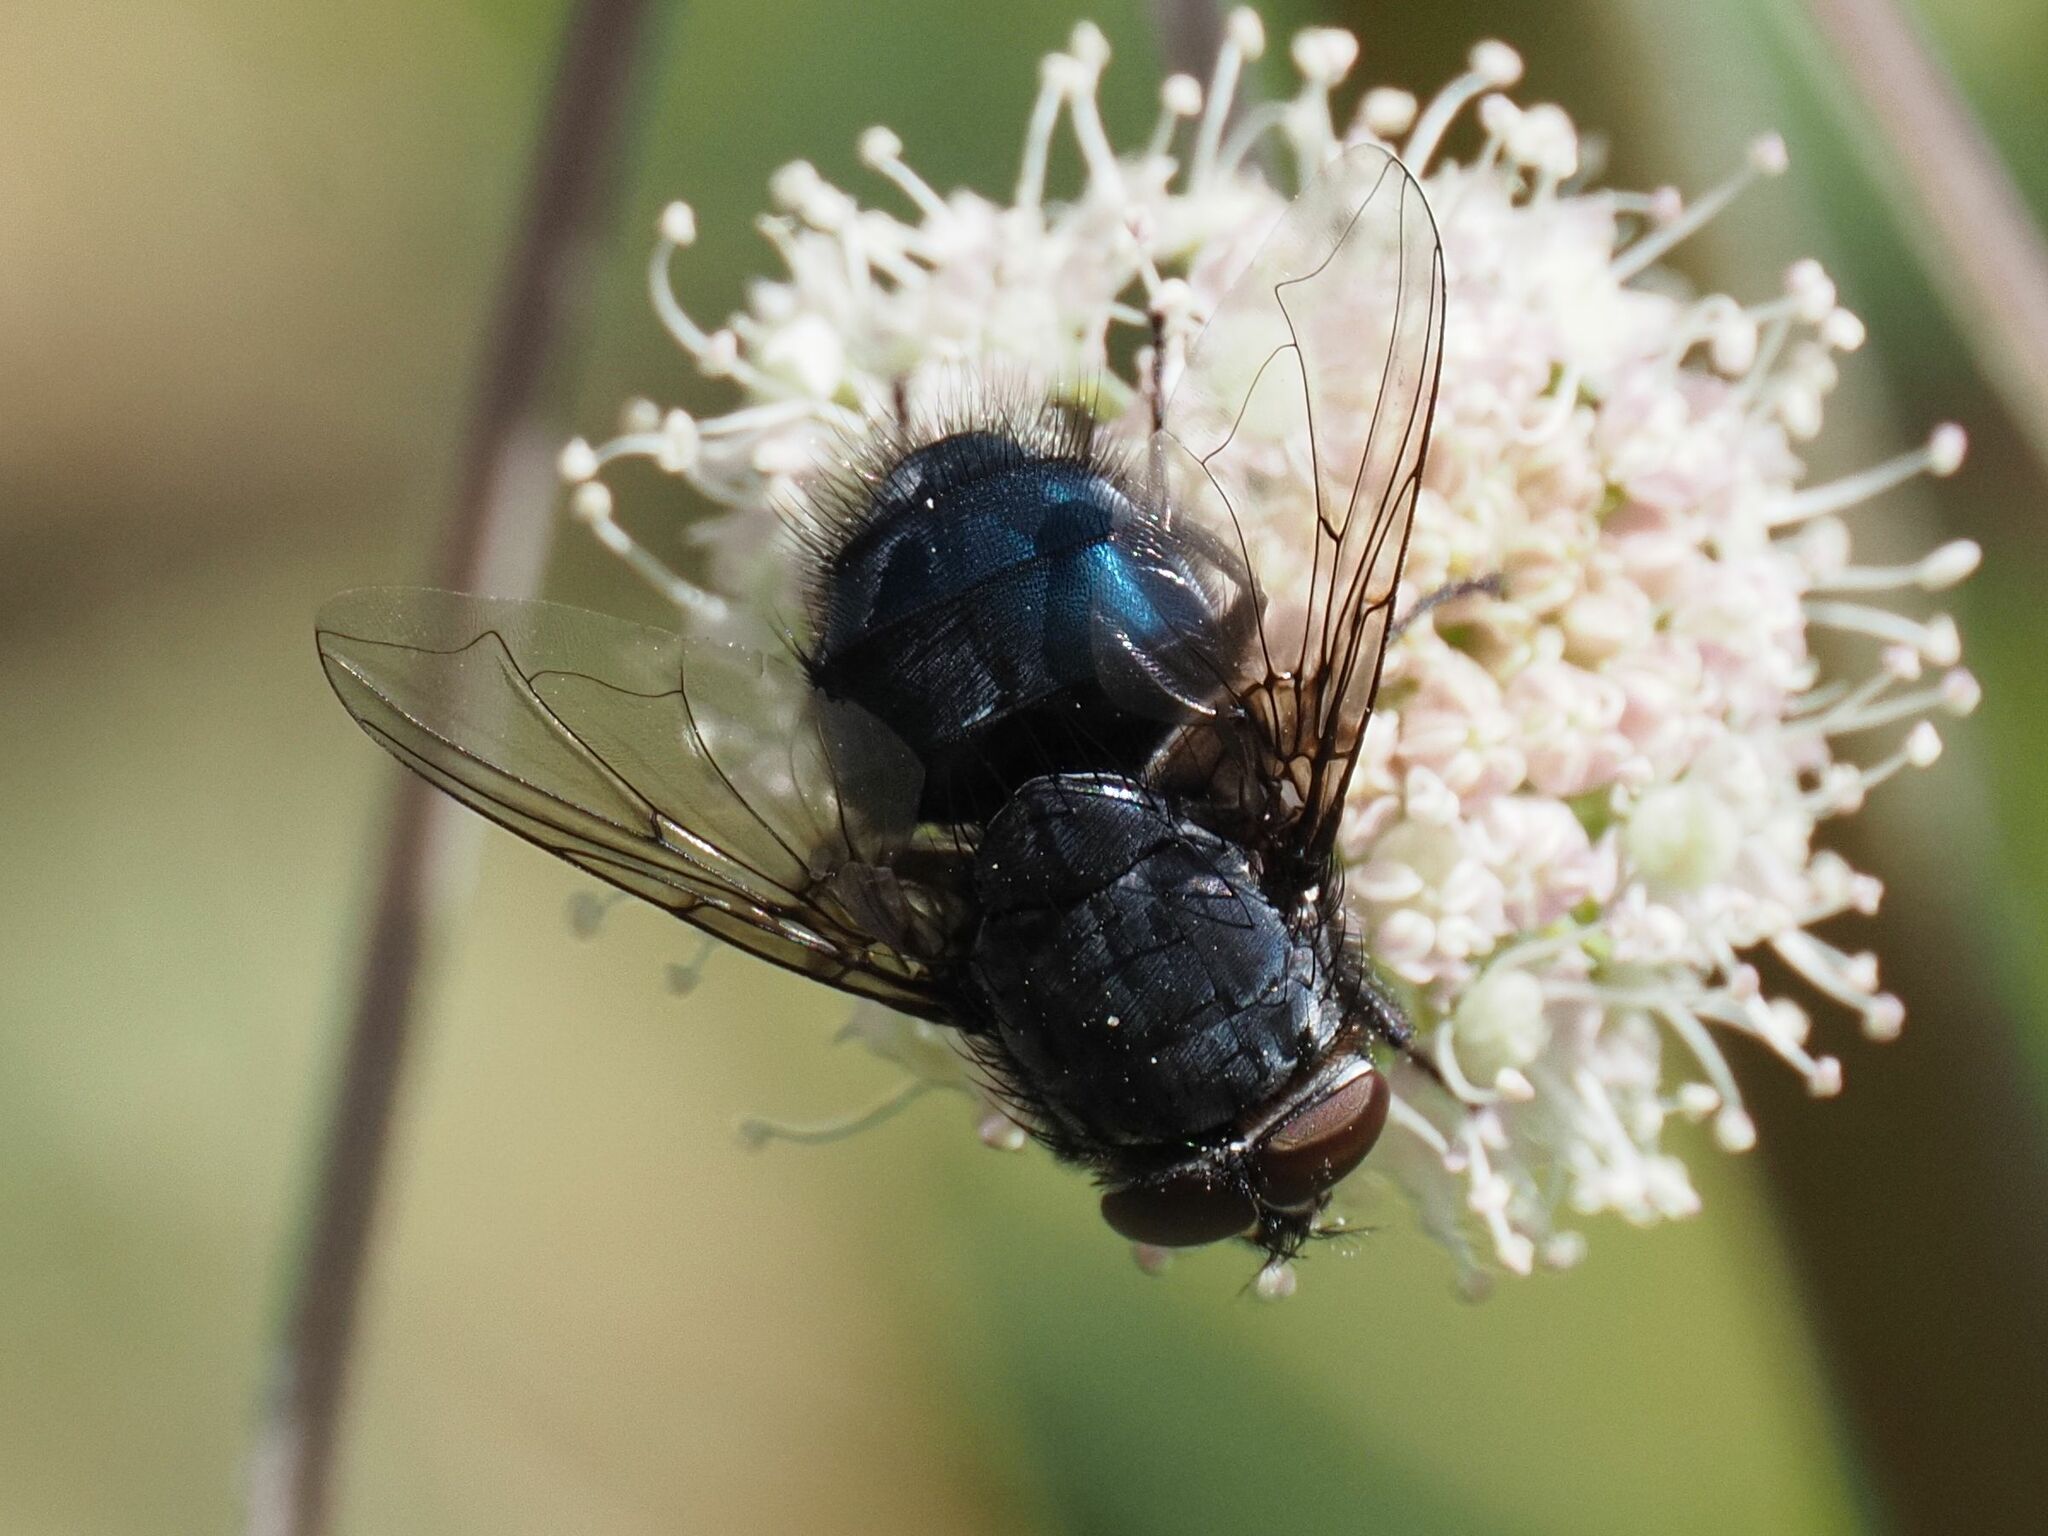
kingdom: Animalia
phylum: Arthropoda
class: Insecta
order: Diptera
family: Calliphoridae
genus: Calliphora
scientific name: Calliphora vomitoria
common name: Blue bottle fly
